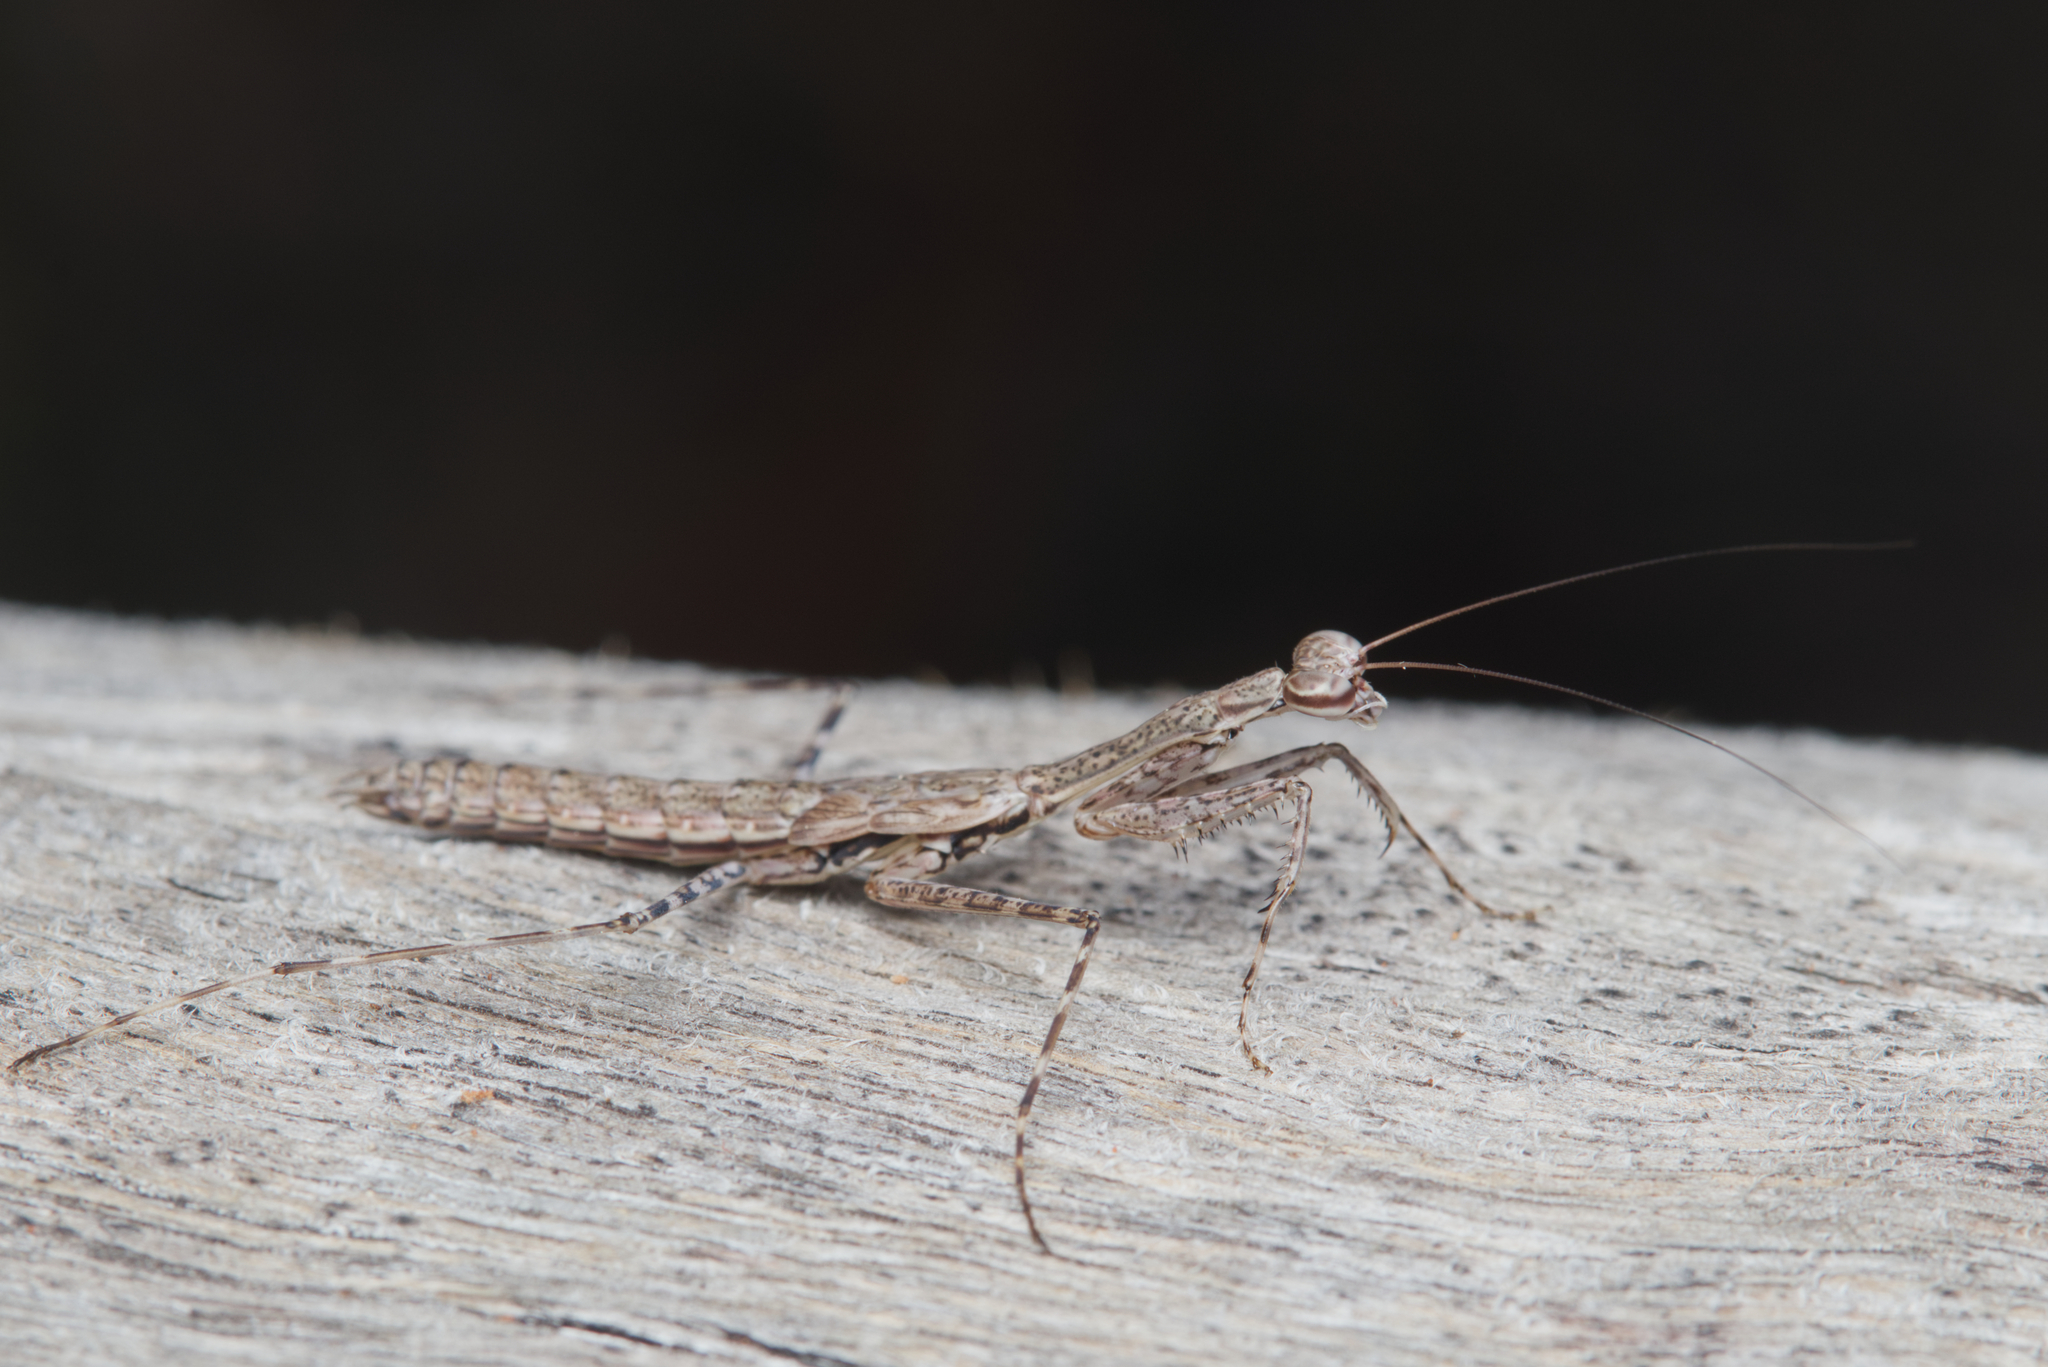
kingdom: Animalia
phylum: Arthropoda
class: Insecta
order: Mantodea
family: Nanomantidae
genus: Ciulfina
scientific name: Ciulfina baldersoni
